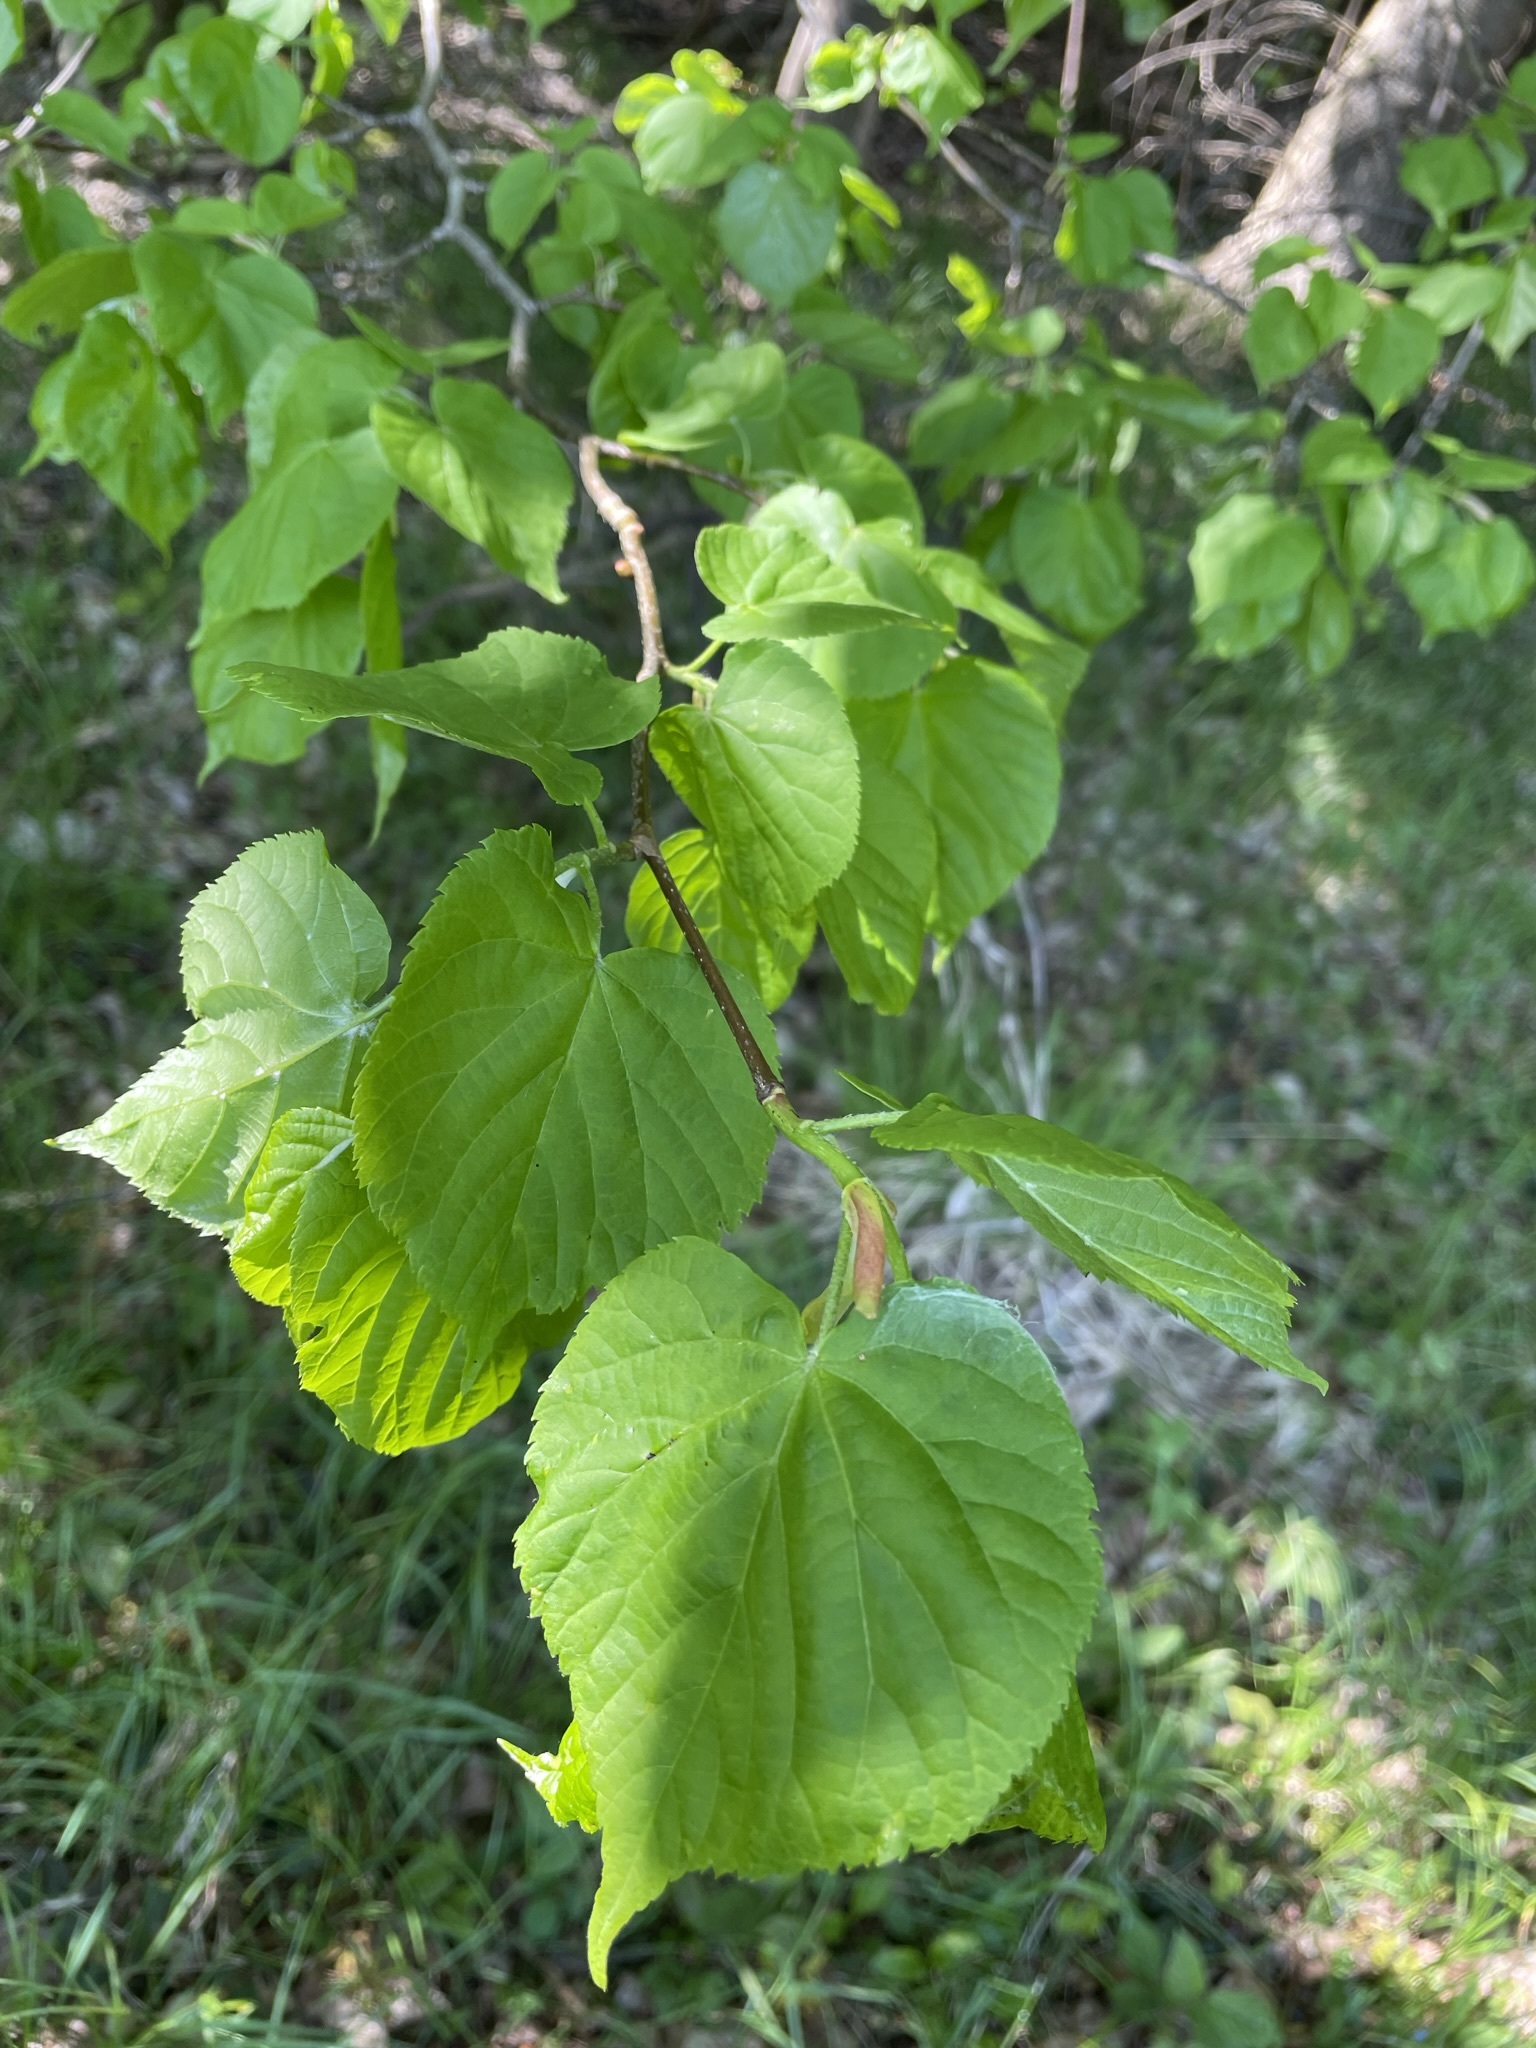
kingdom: Plantae
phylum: Tracheophyta
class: Magnoliopsida
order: Malvales
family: Malvaceae
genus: Tilia
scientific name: Tilia platyphyllos
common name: Large-leaved lime
